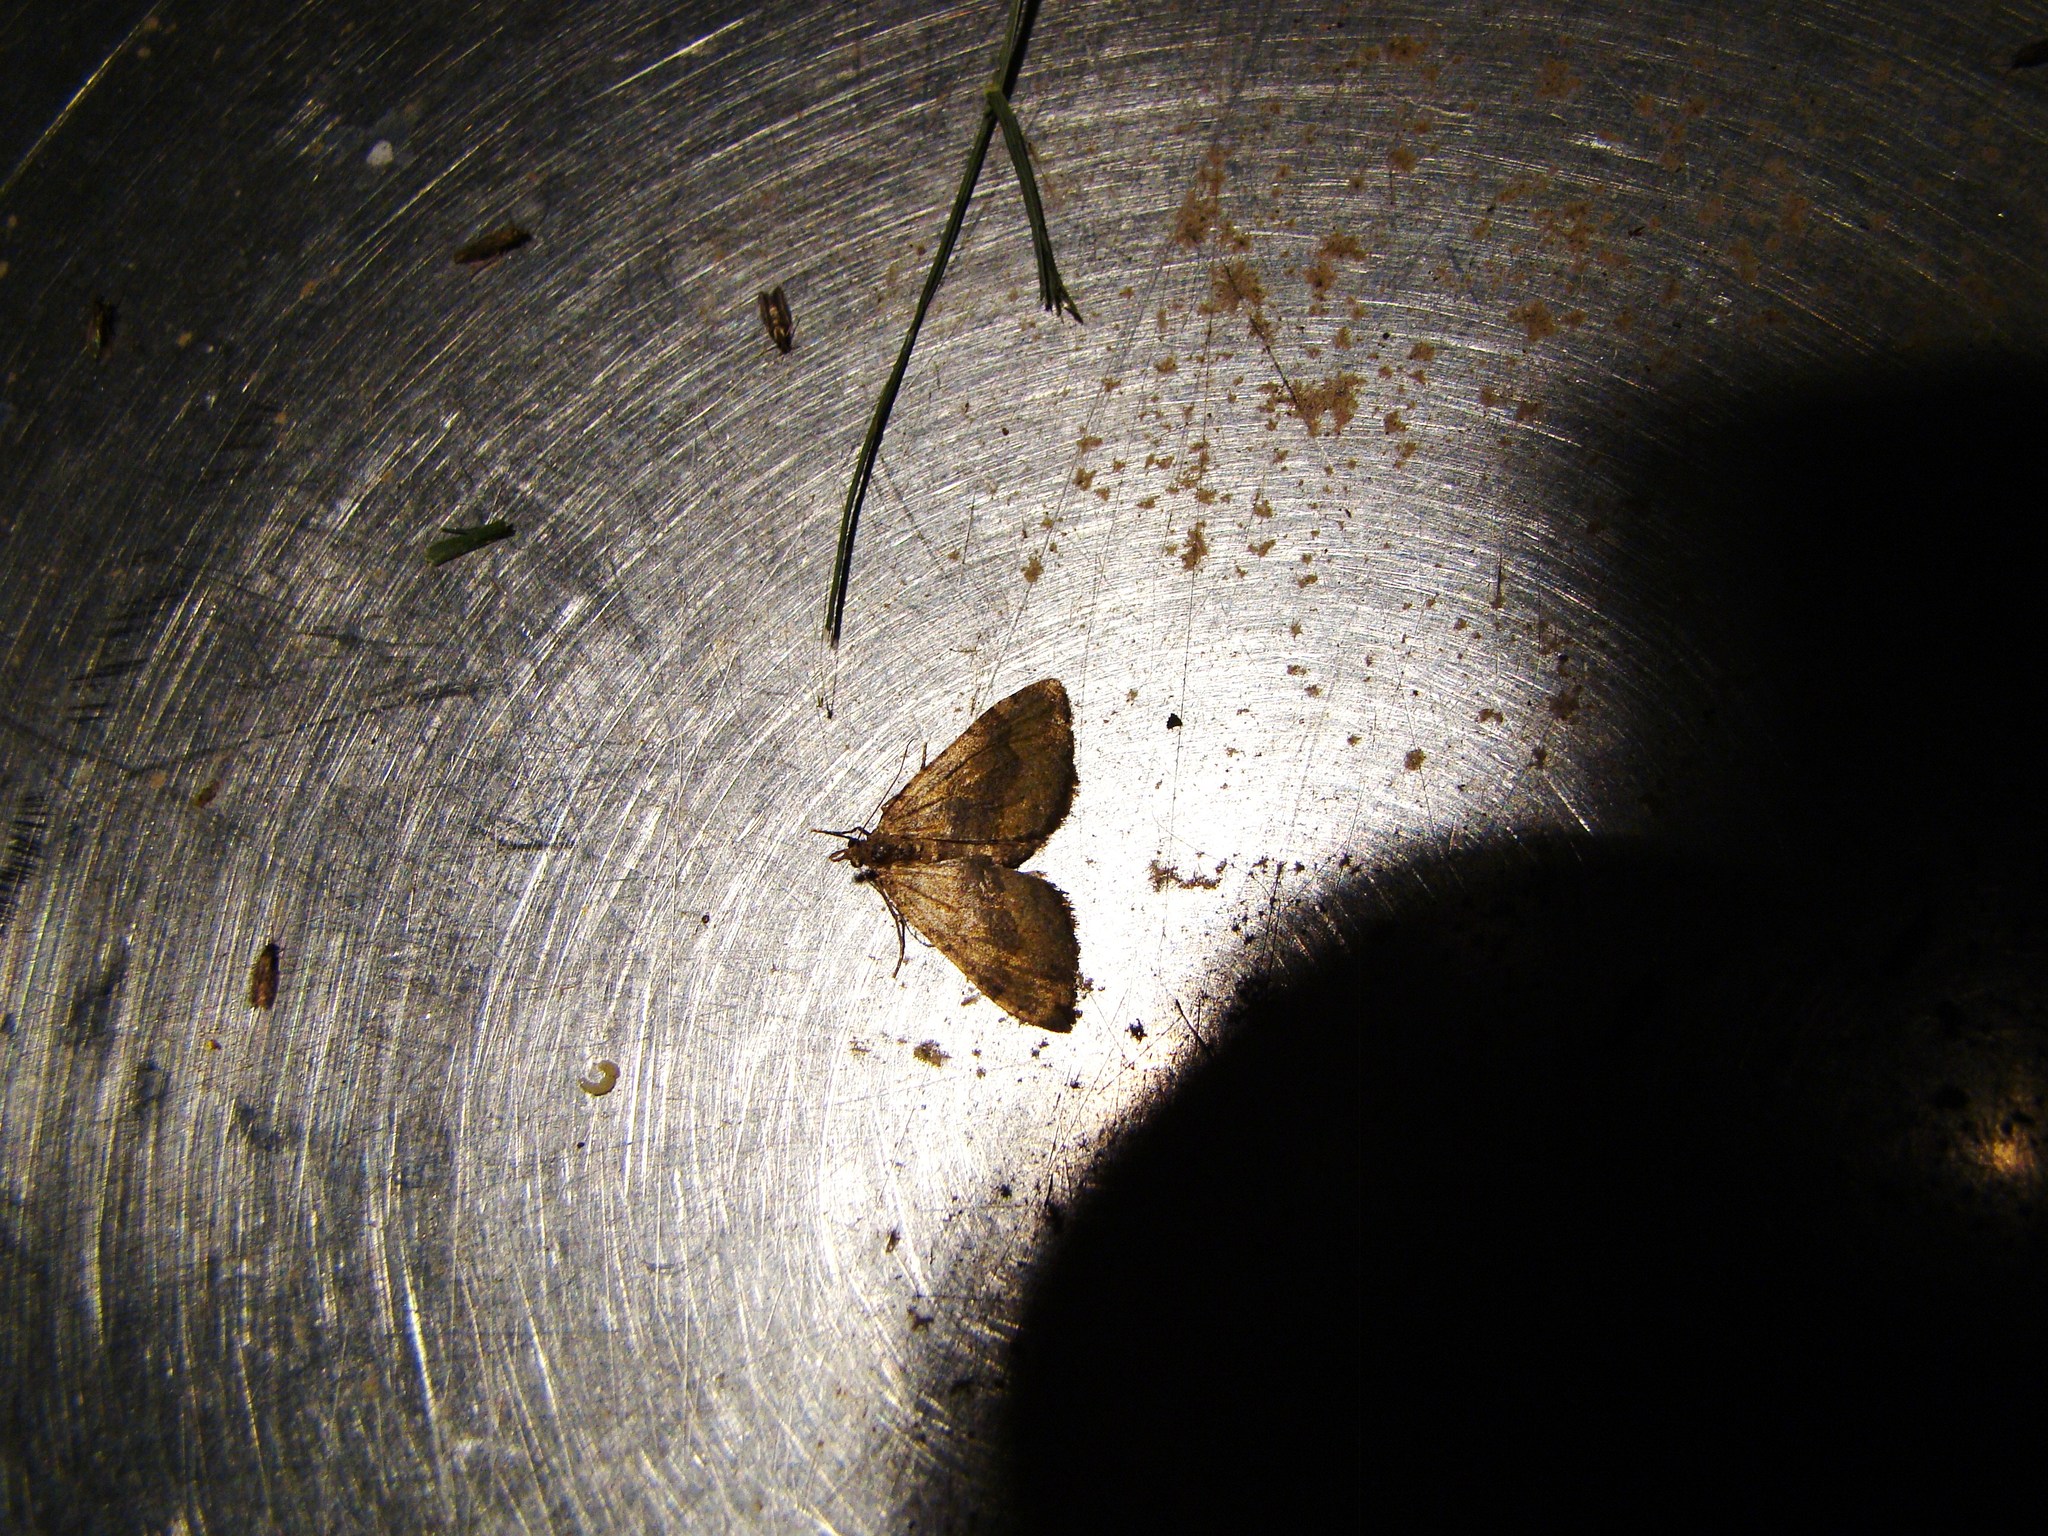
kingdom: Animalia
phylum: Arthropoda
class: Insecta
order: Lepidoptera
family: Geometridae
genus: Epyaxa
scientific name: Epyaxa rosearia
